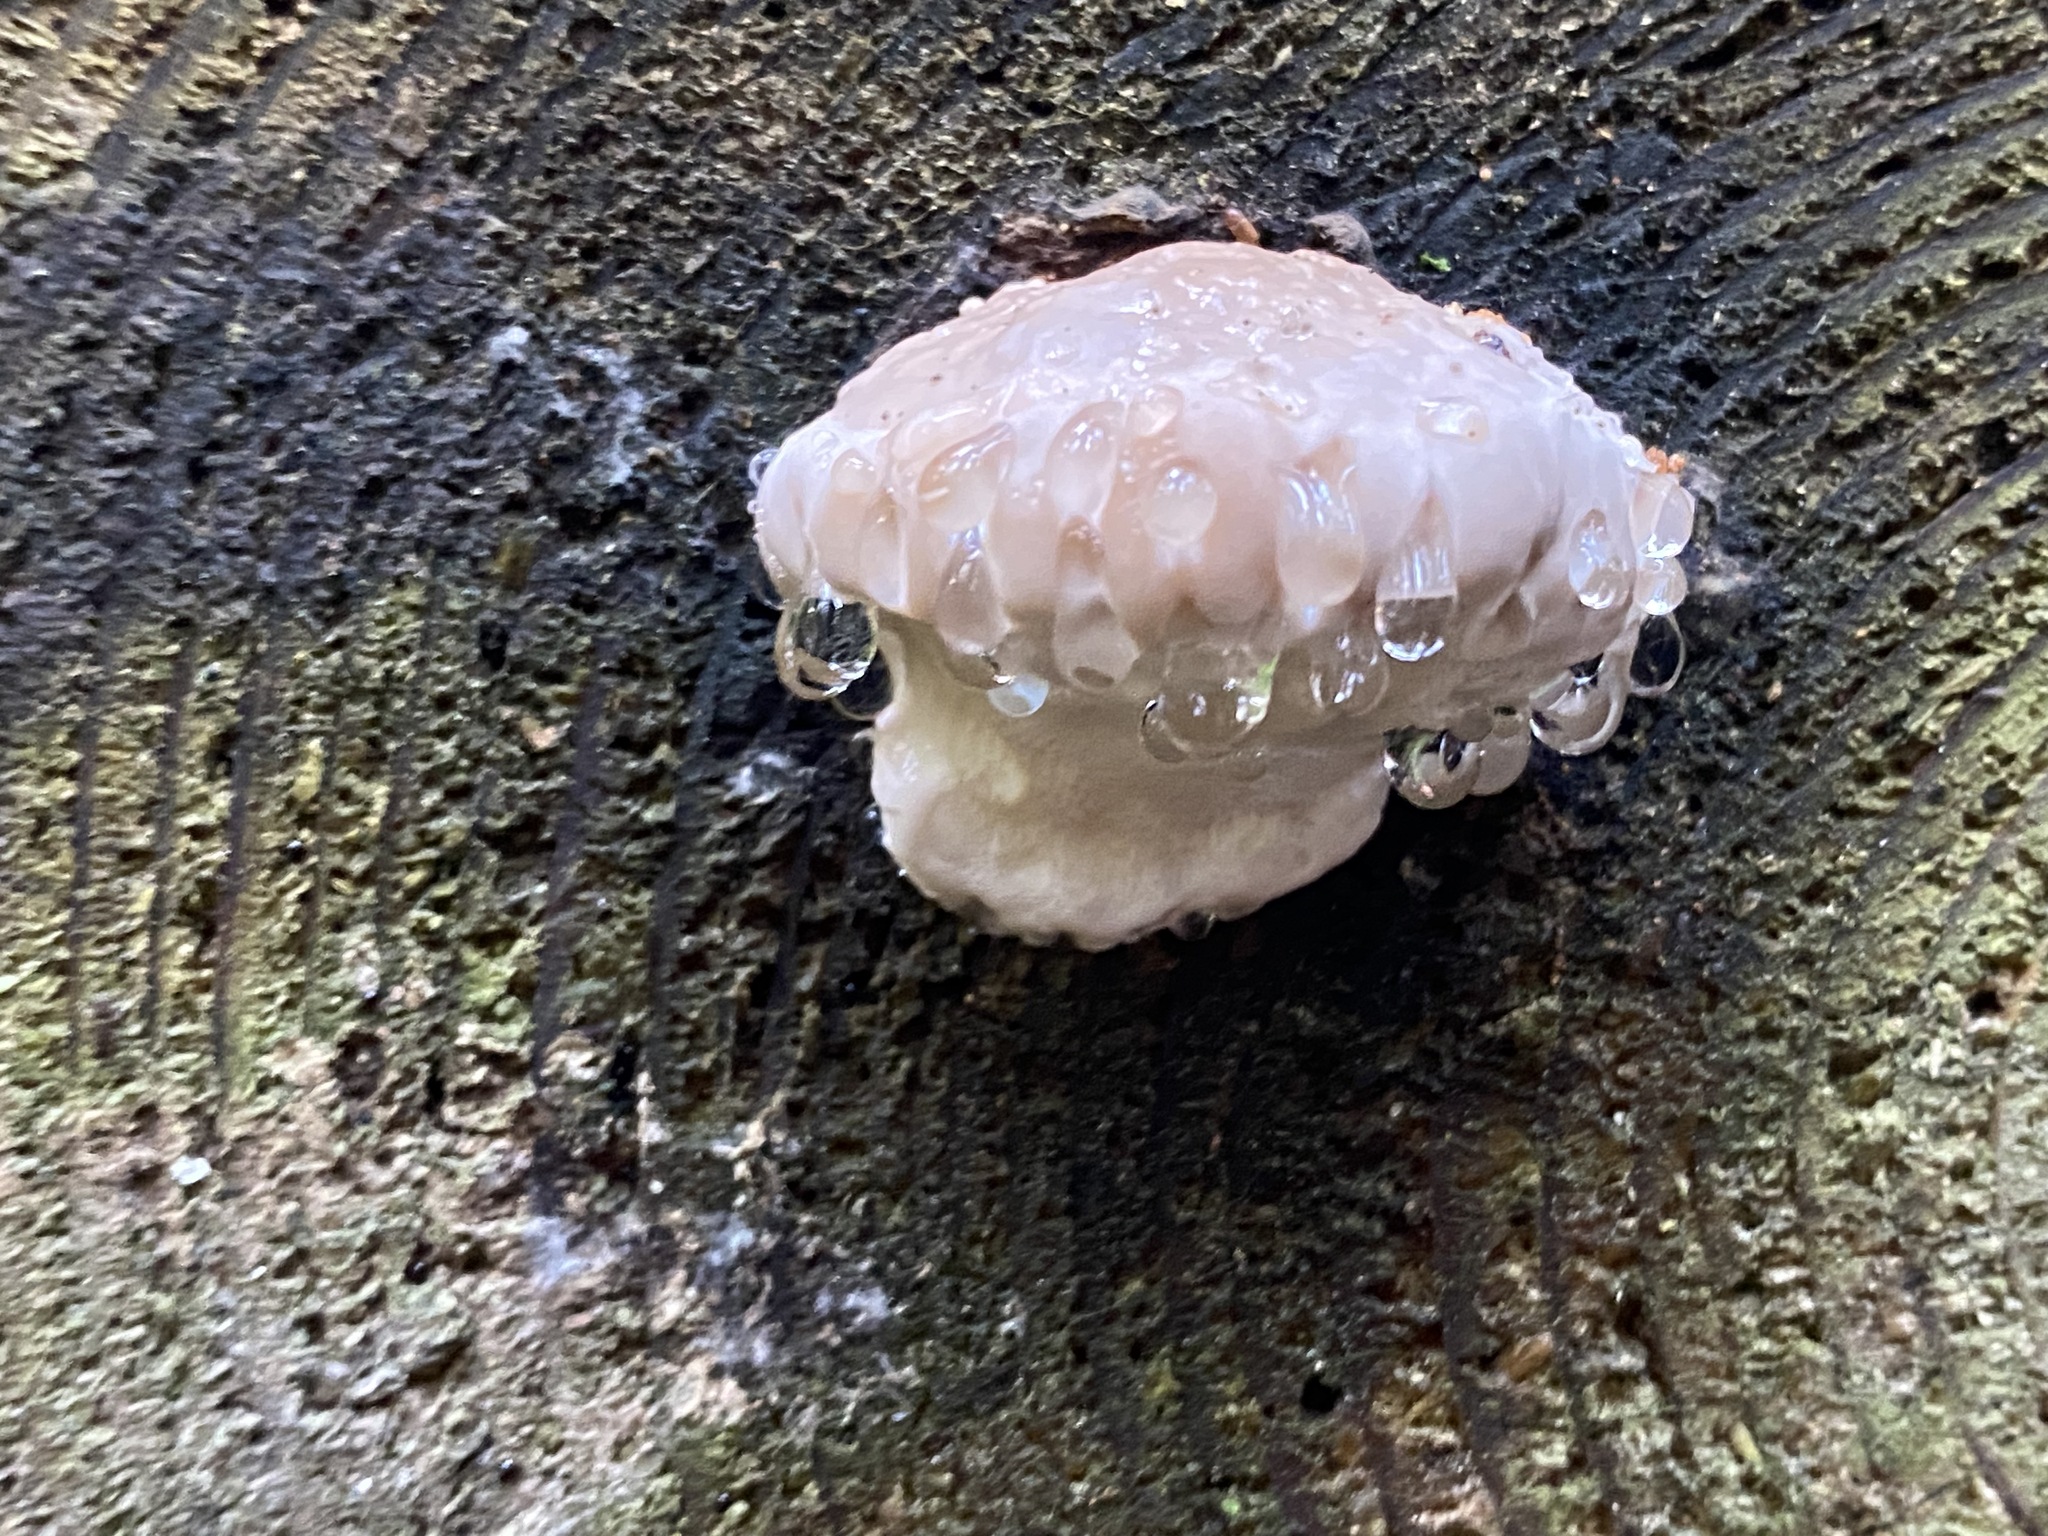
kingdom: Fungi
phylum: Basidiomycota
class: Agaricomycetes
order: Polyporales
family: Fomitopsidaceae
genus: Fomitopsis
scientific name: Fomitopsis pinicola
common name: Red-belted bracket
